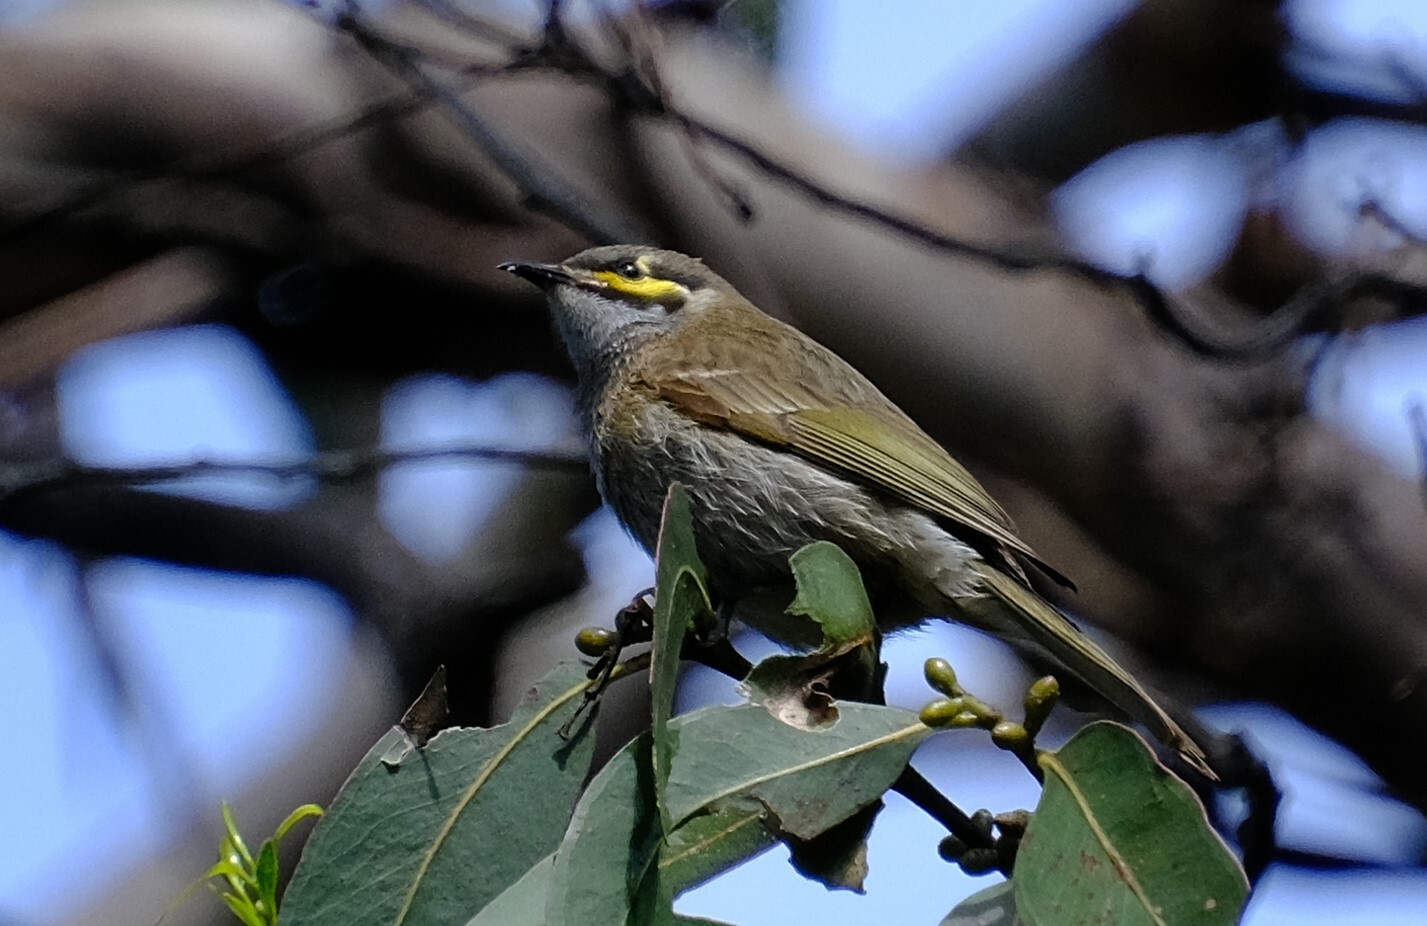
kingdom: Animalia
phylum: Chordata
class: Aves
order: Passeriformes
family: Meliphagidae
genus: Caligavis
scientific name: Caligavis chrysops
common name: Yellow-faced honeyeater
